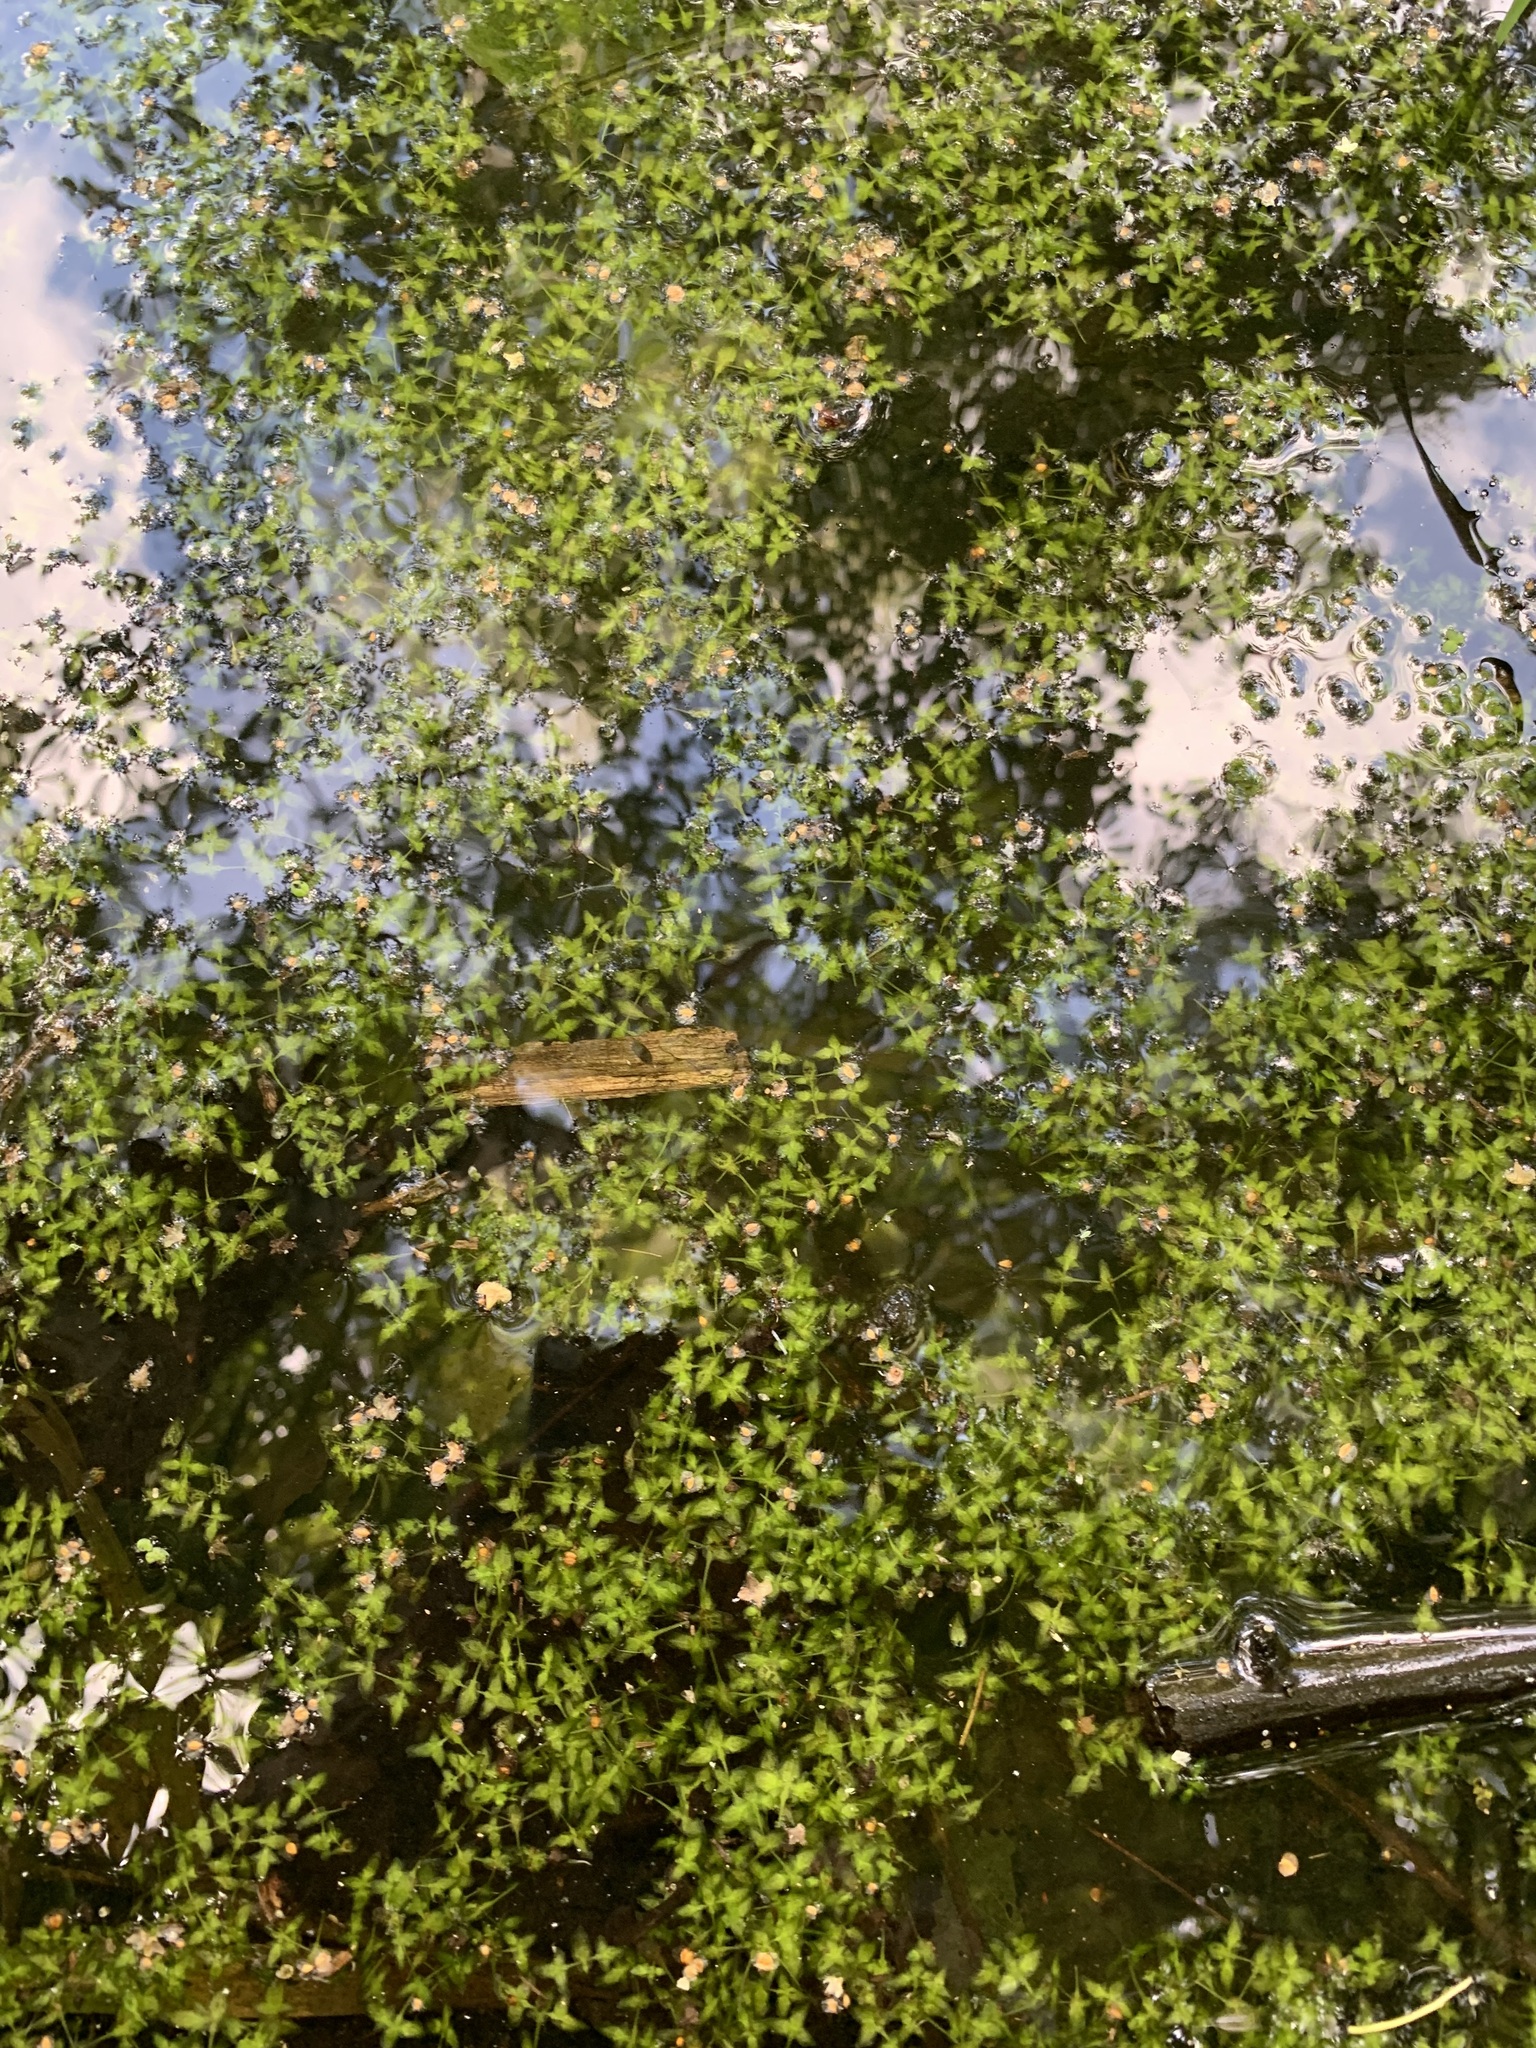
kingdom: Plantae
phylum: Tracheophyta
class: Liliopsida
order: Alismatales
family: Araceae
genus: Lemna
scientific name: Lemna trisulca
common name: Ivy-leaved duckweed
